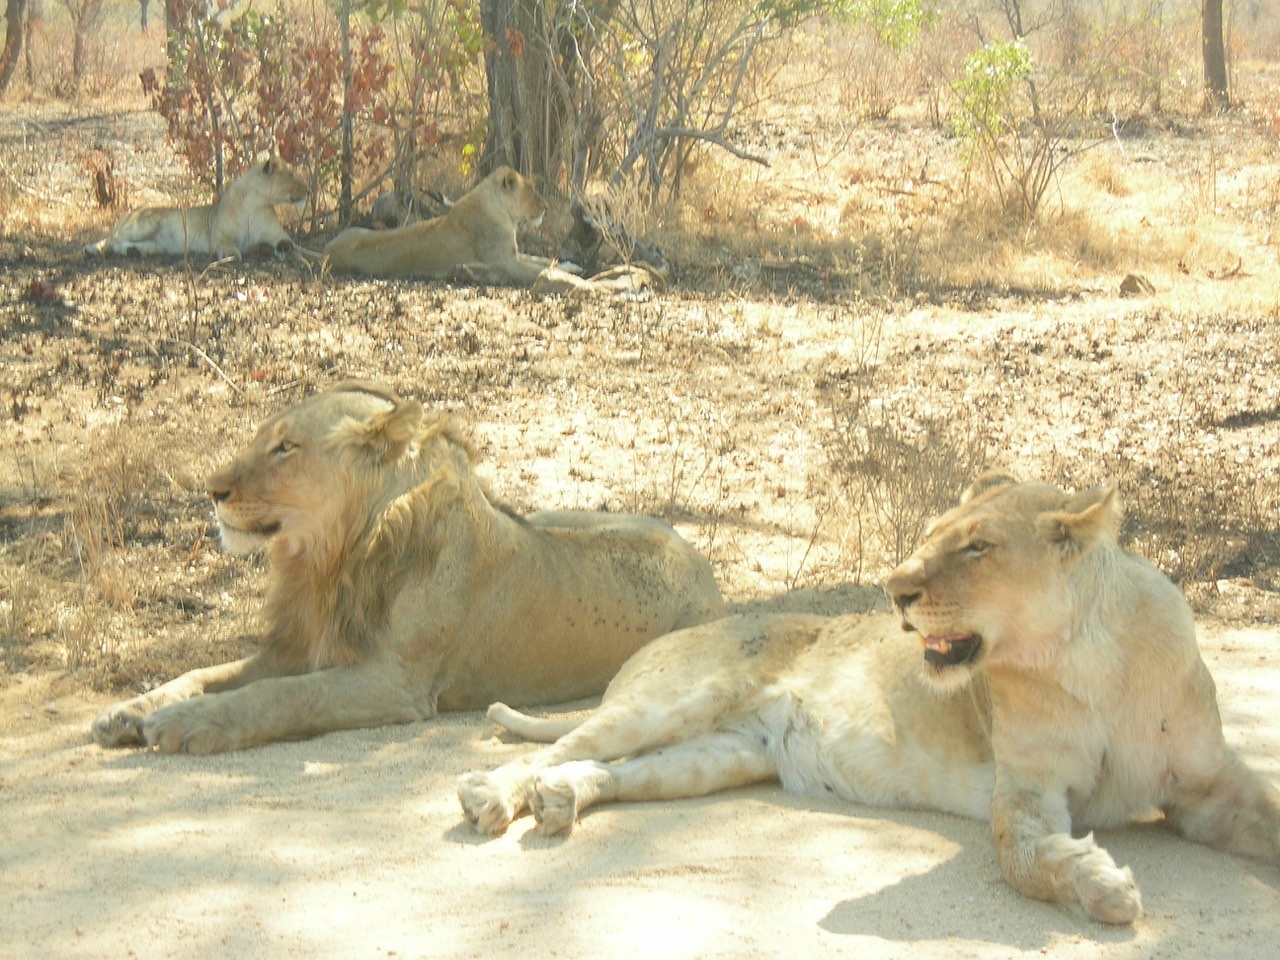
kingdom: Animalia
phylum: Chordata
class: Mammalia
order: Carnivora
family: Felidae
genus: Panthera
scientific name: Panthera leo
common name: Lion
